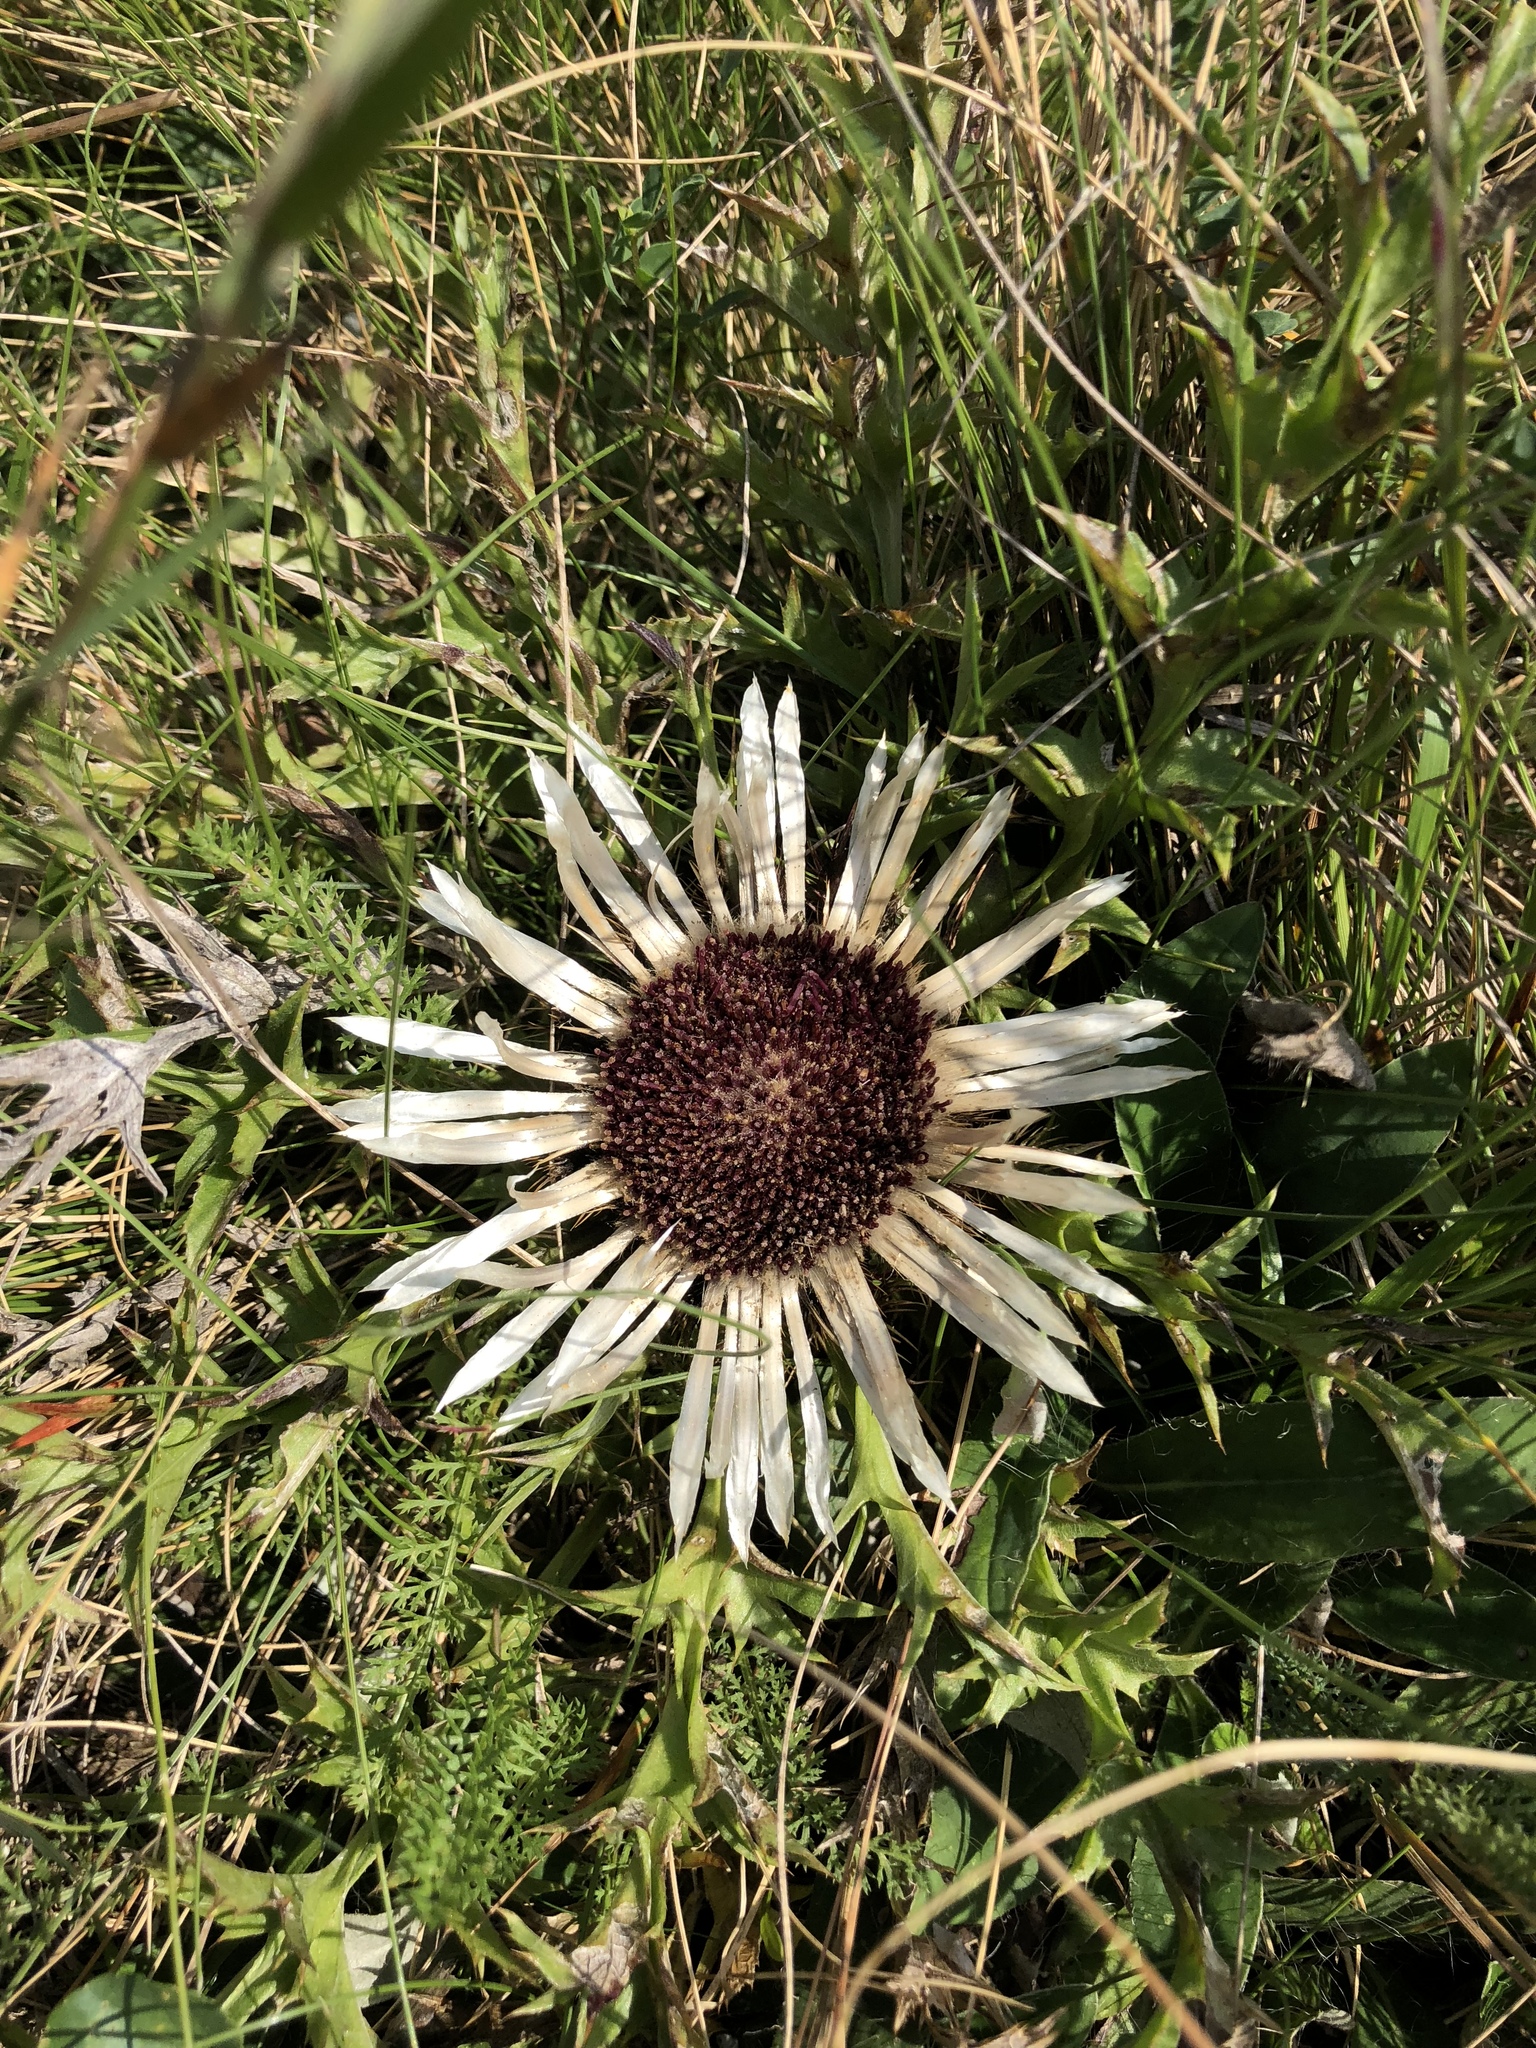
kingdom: Plantae
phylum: Tracheophyta
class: Magnoliopsida
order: Asterales
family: Asteraceae
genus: Carlina
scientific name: Carlina acaulis
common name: Stemless carline thistle
